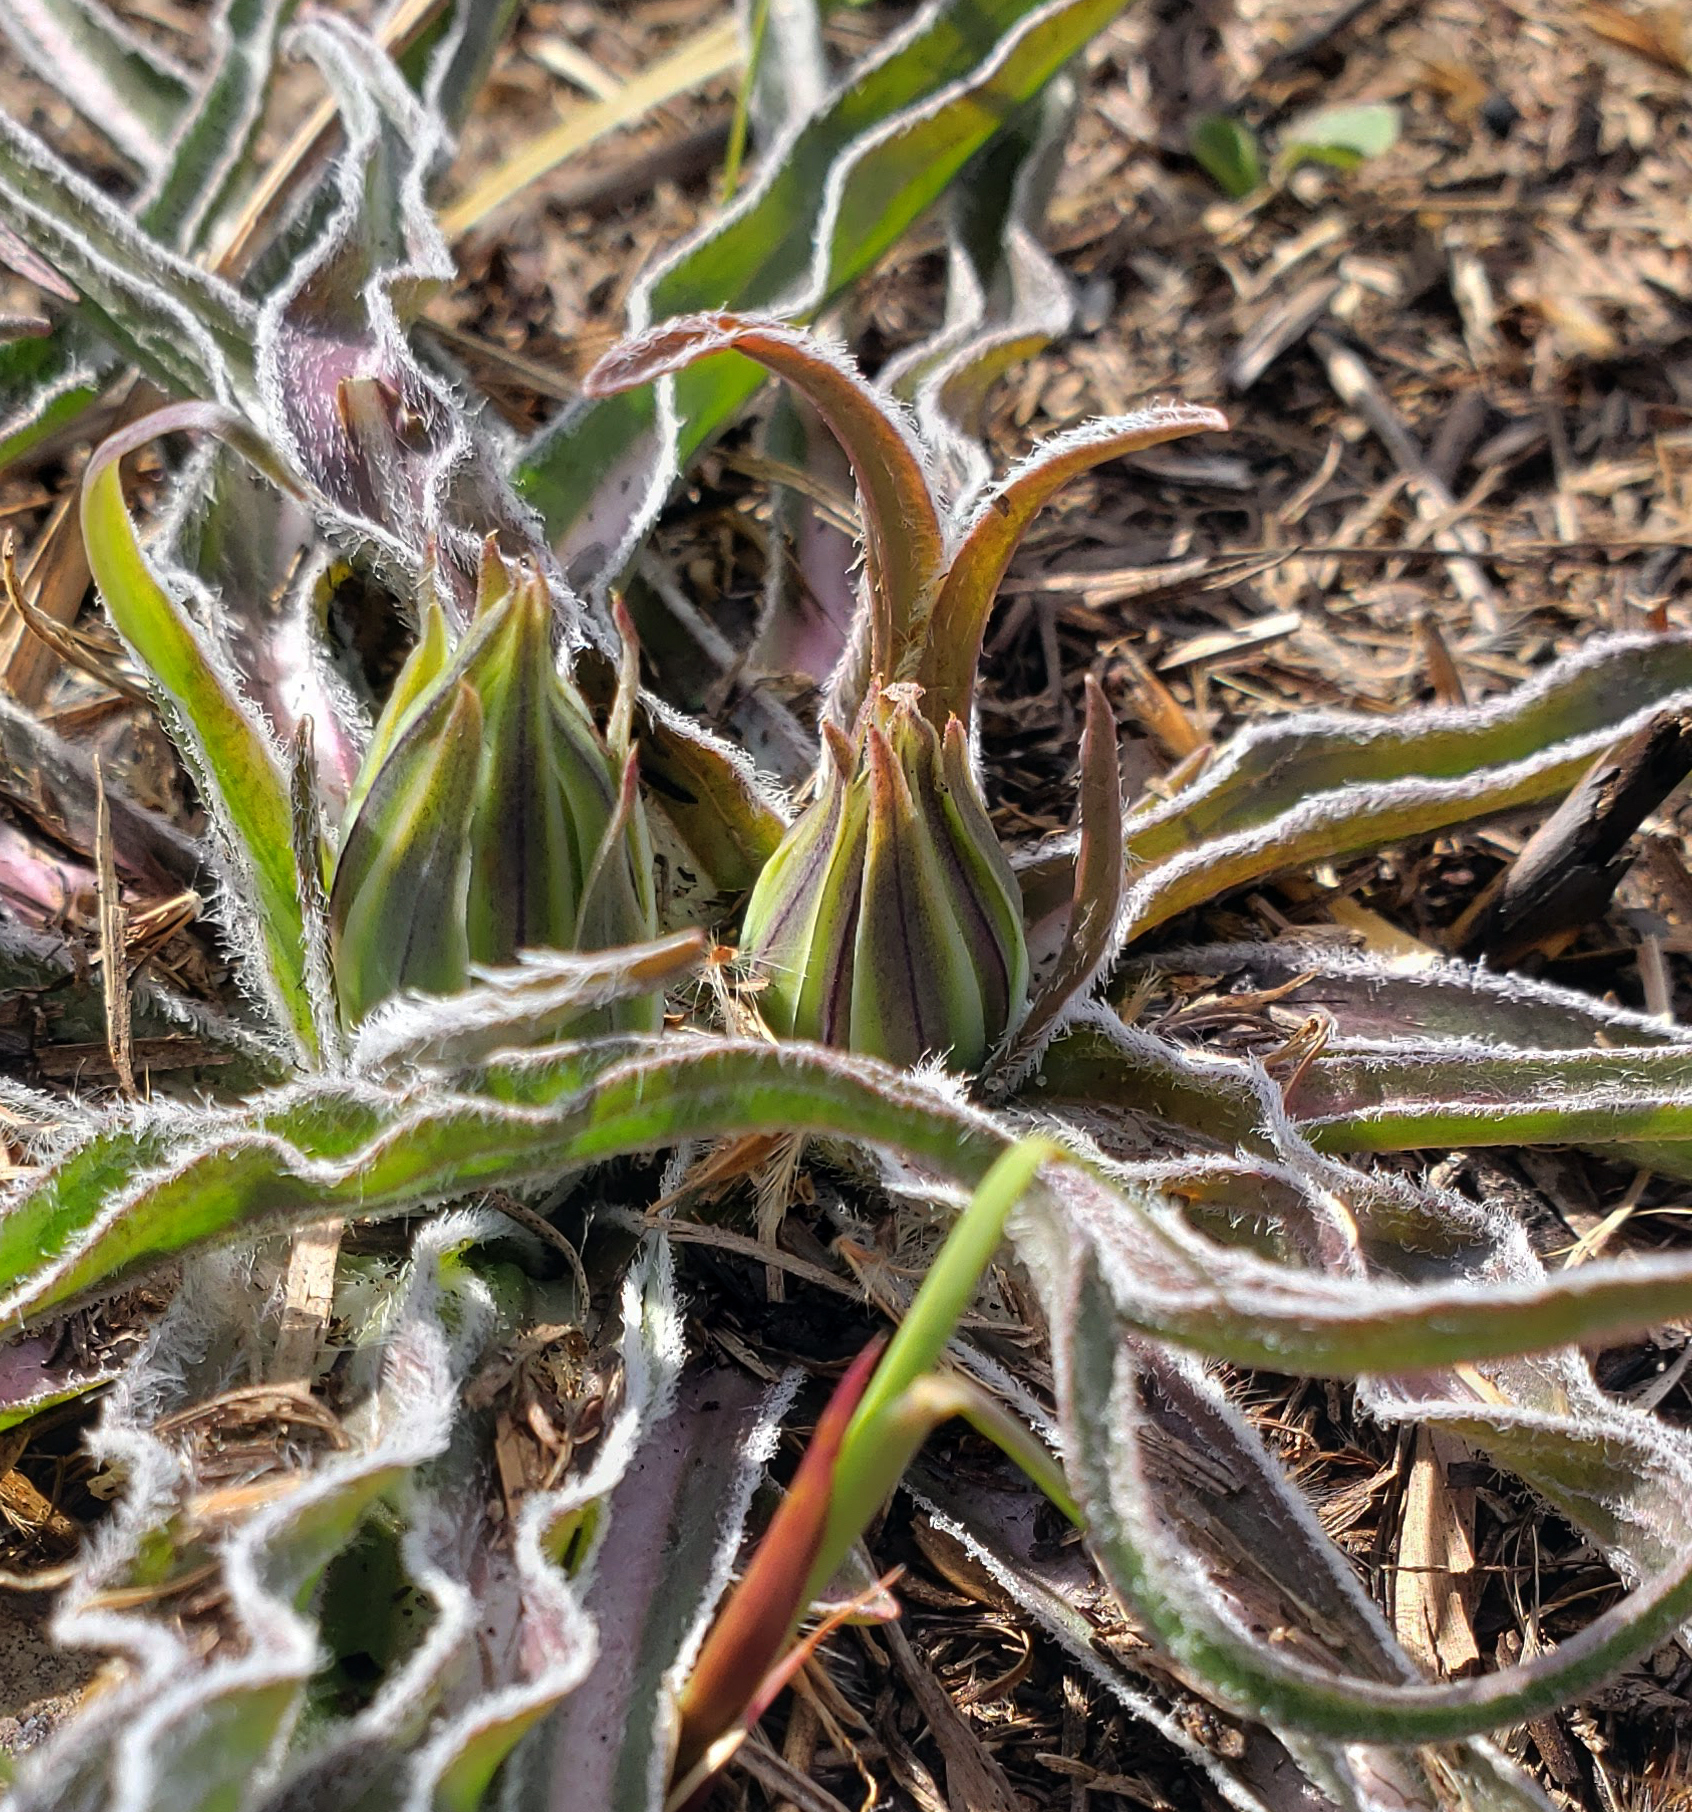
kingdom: Plantae
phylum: Tracheophyta
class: Magnoliopsida
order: Asterales
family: Asteraceae
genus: Microseris
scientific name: Microseris cuspidata
